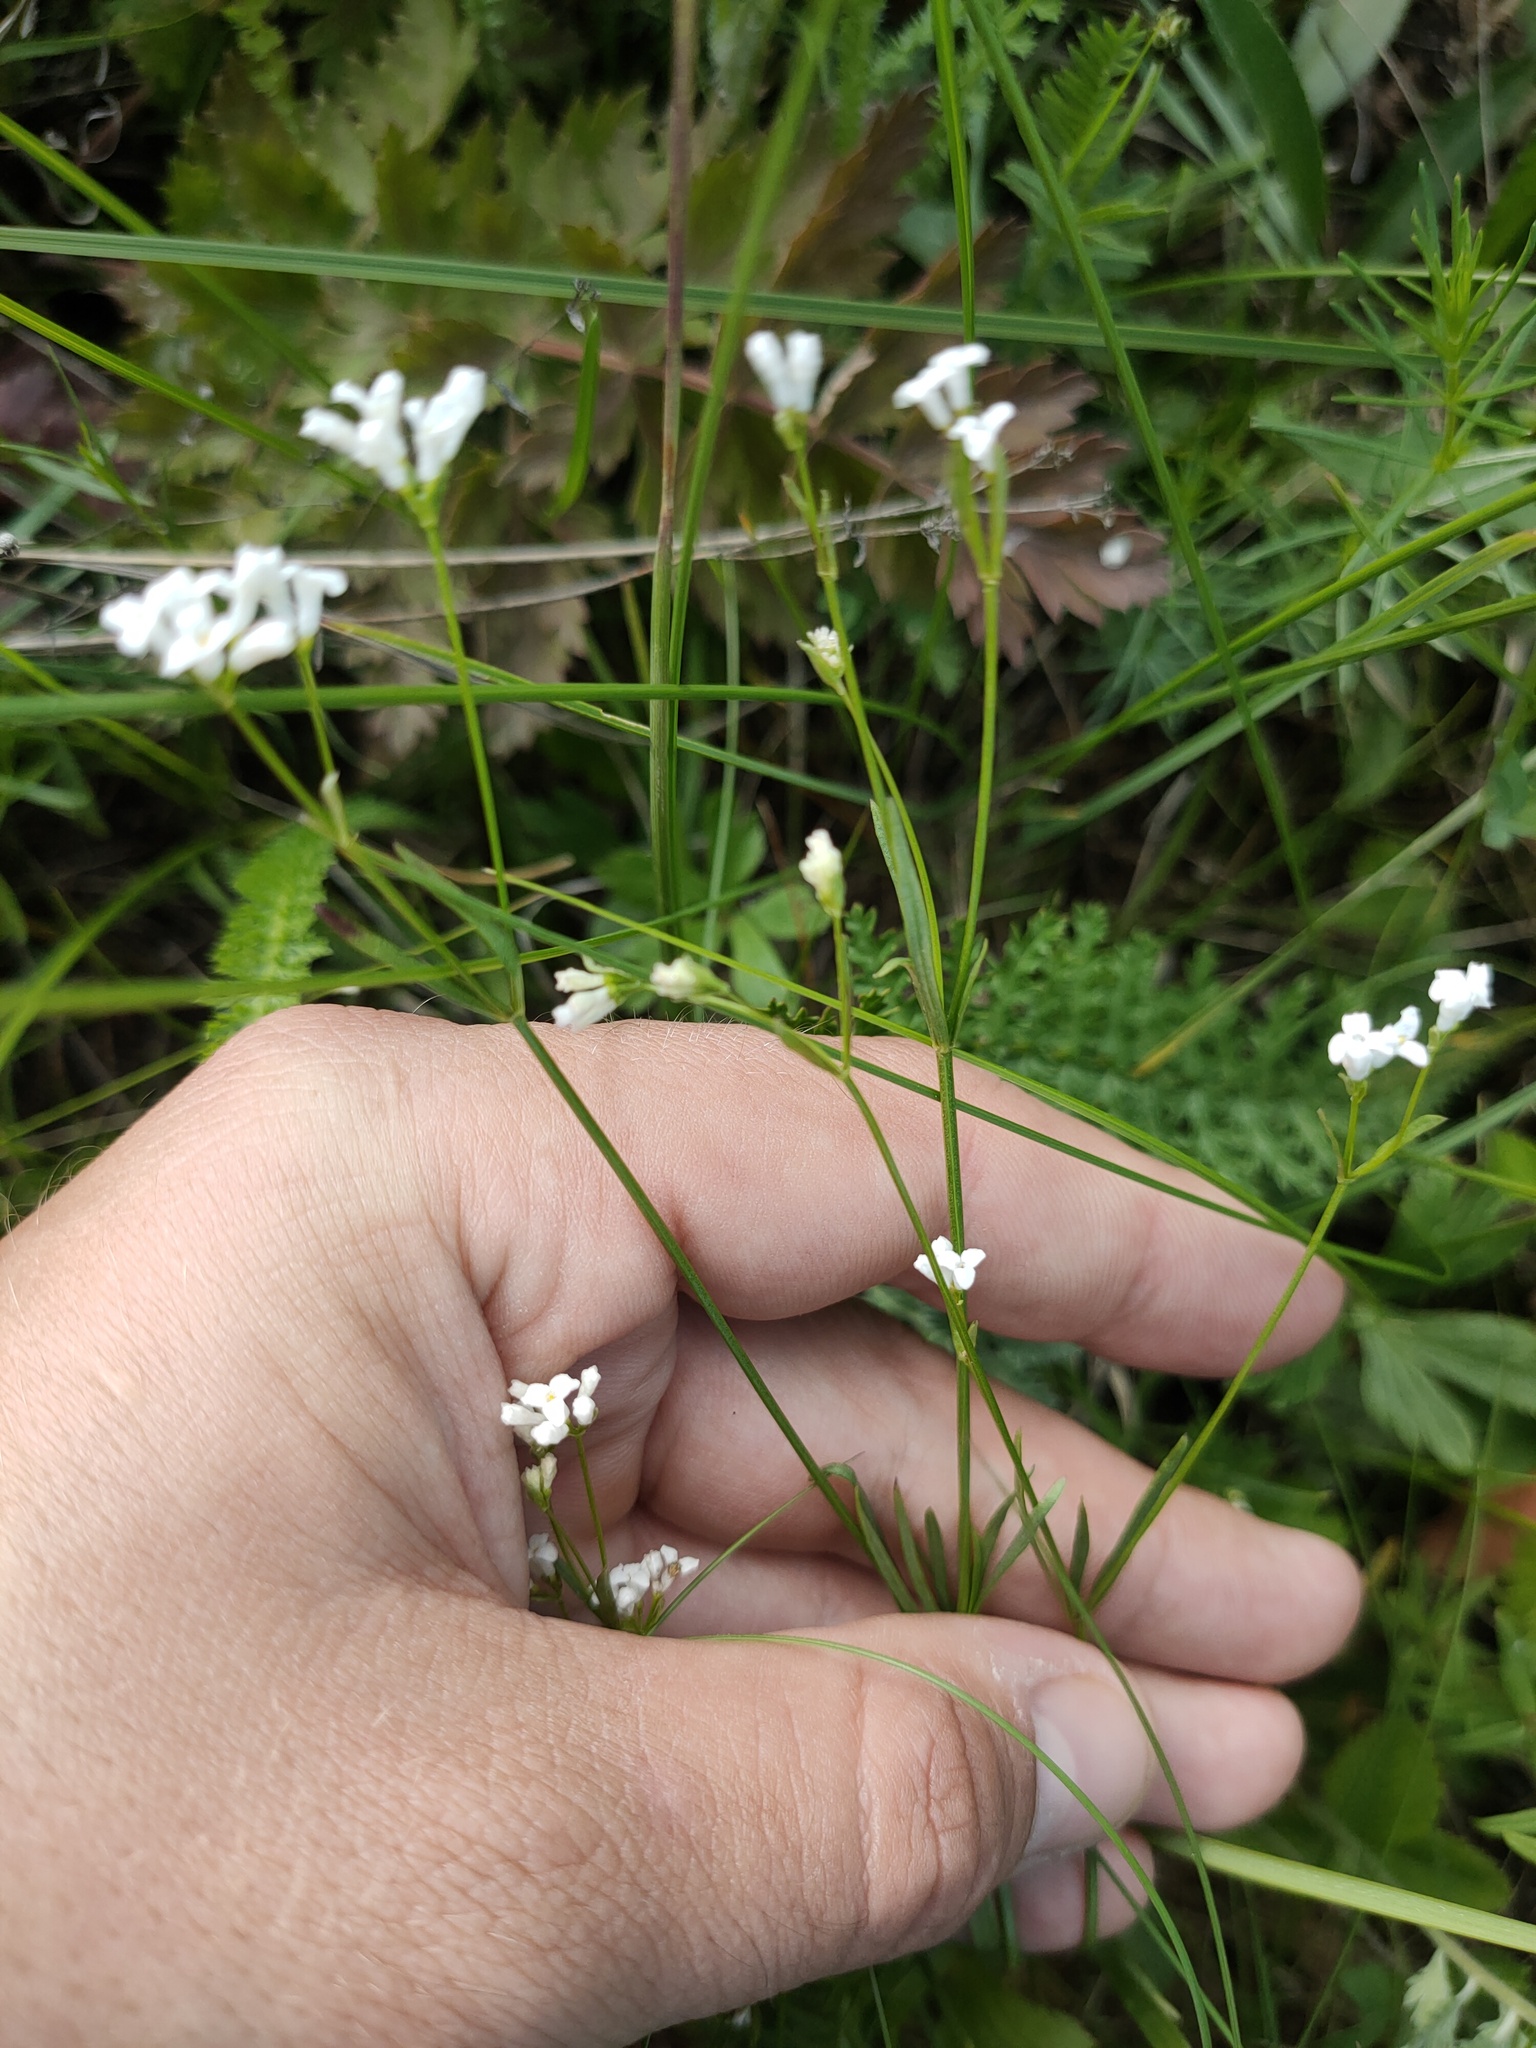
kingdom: Plantae
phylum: Tracheophyta
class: Magnoliopsida
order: Gentianales
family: Rubiaceae
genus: Asperula
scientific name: Asperula tinctoria
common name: Dyer's woodruff
